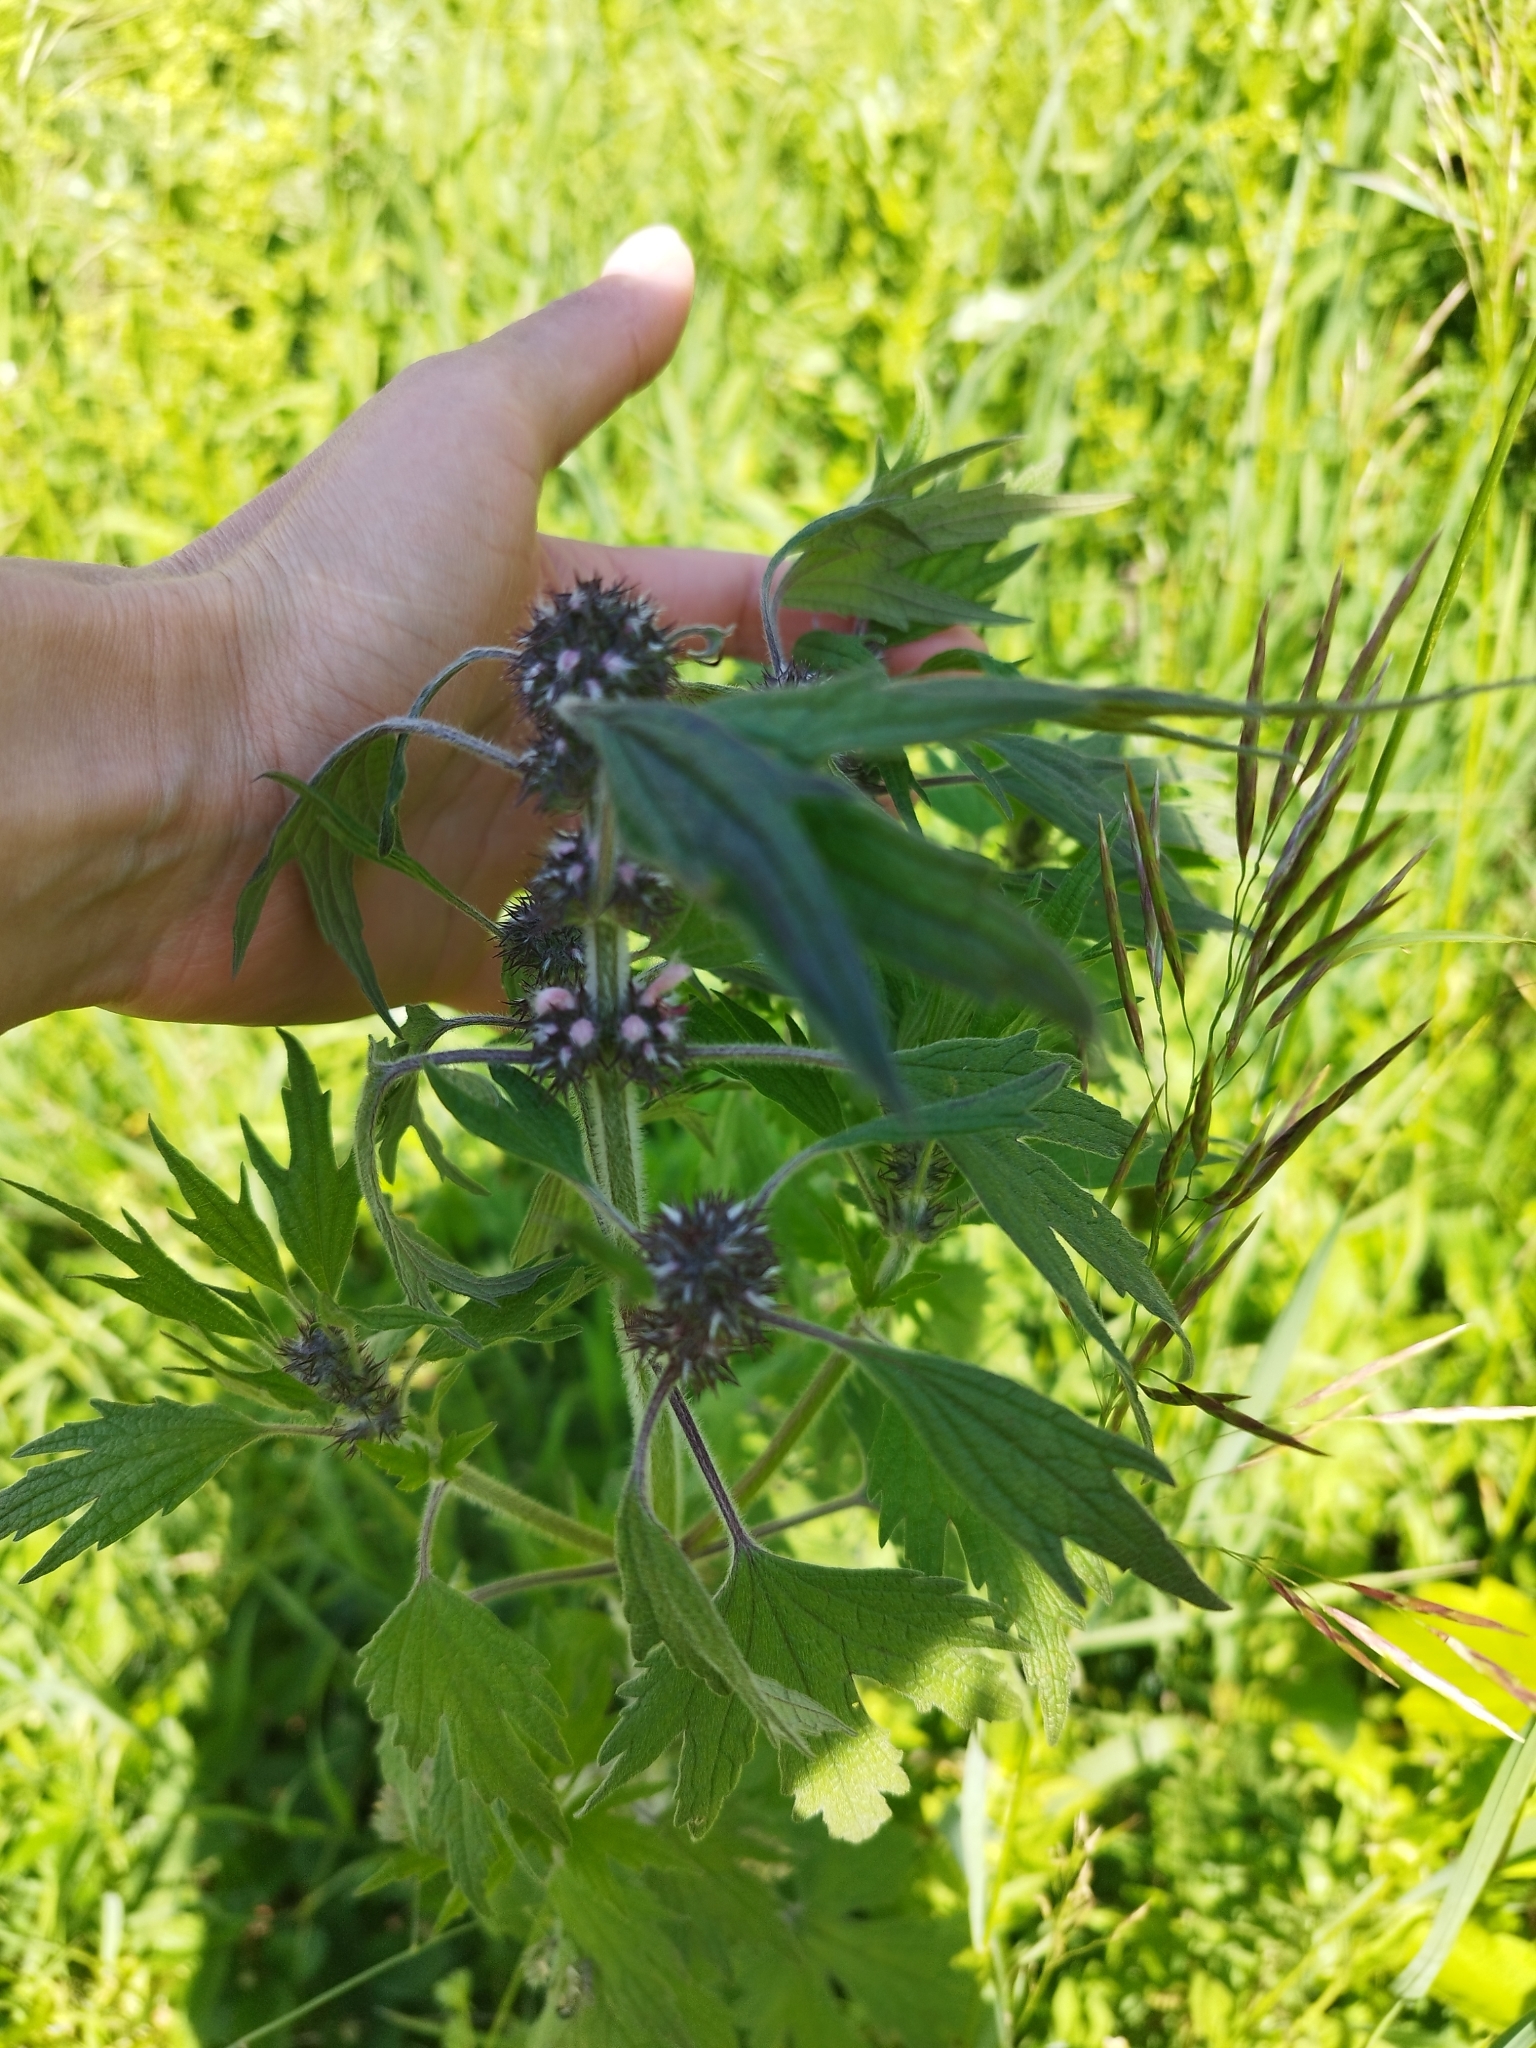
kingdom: Plantae
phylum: Tracheophyta
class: Magnoliopsida
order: Lamiales
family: Lamiaceae
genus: Leonurus
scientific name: Leonurus quinquelobatus
